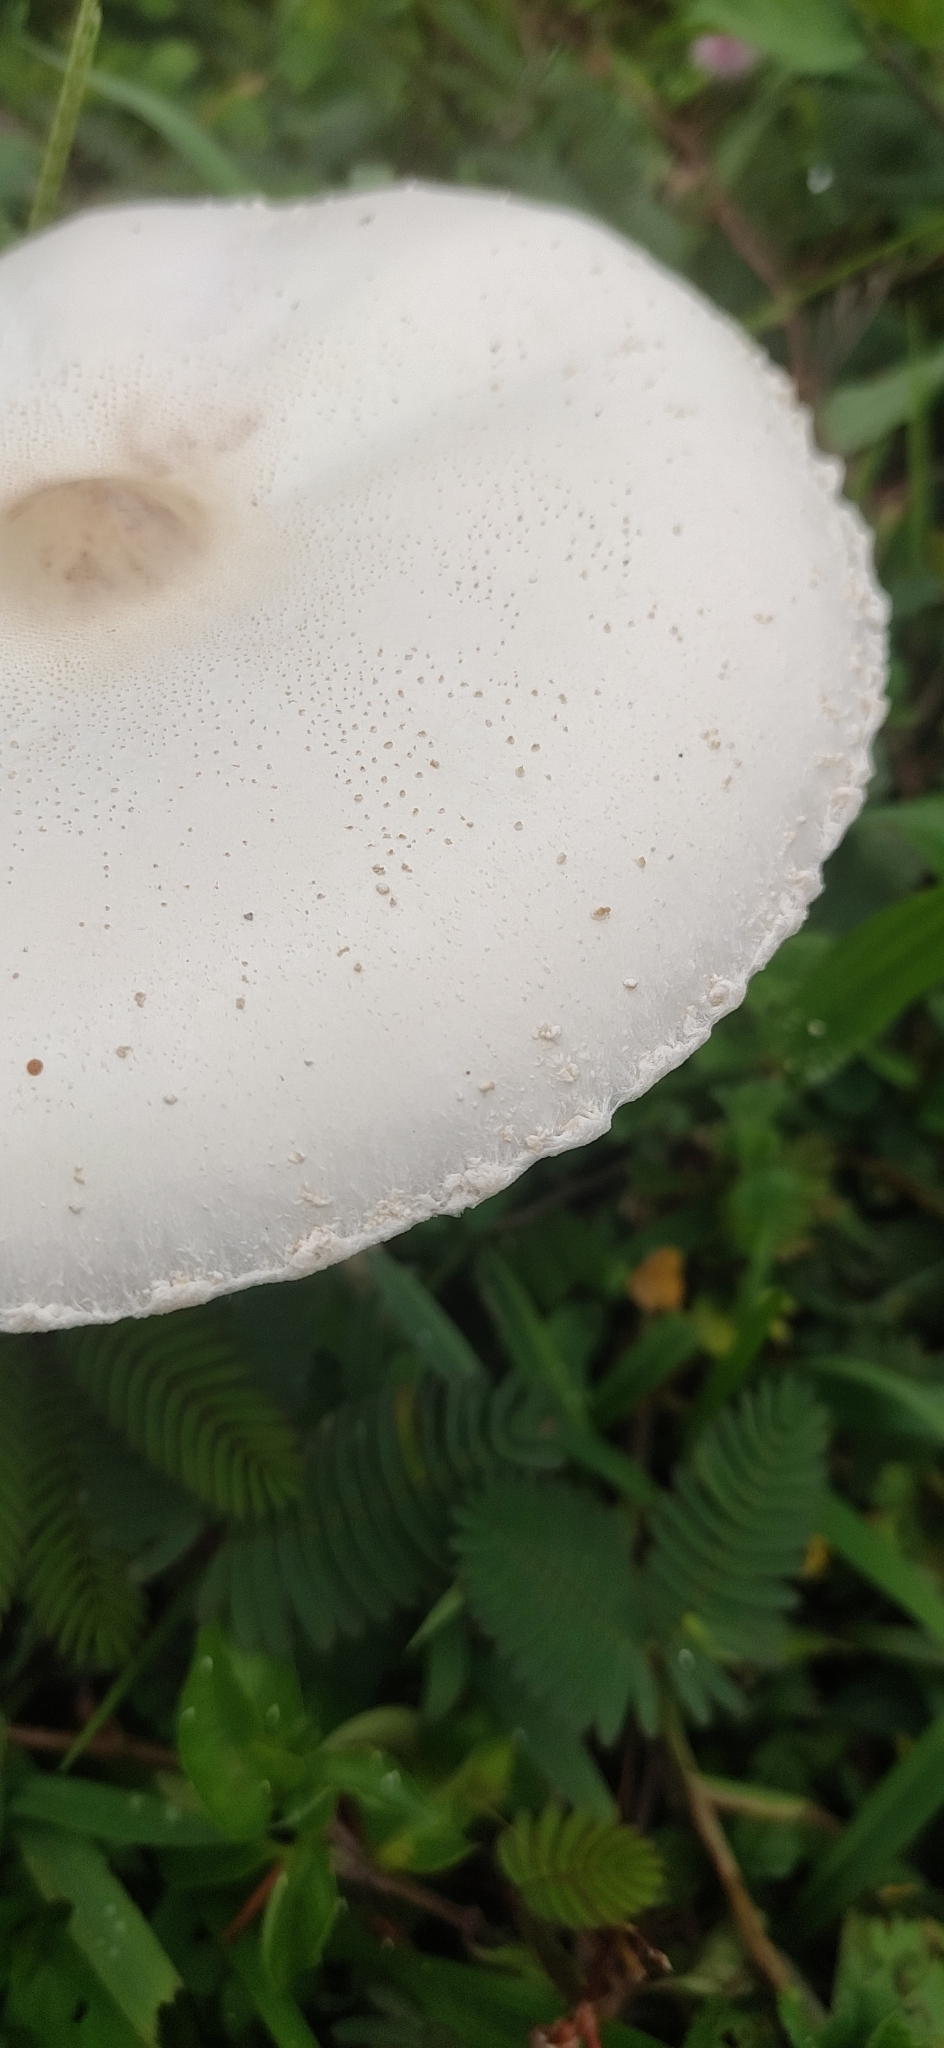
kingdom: Fungi
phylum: Basidiomycota
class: Agaricomycetes
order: Agaricales
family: Agaricaceae
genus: Macrolepiota
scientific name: Macrolepiota dolichaula
